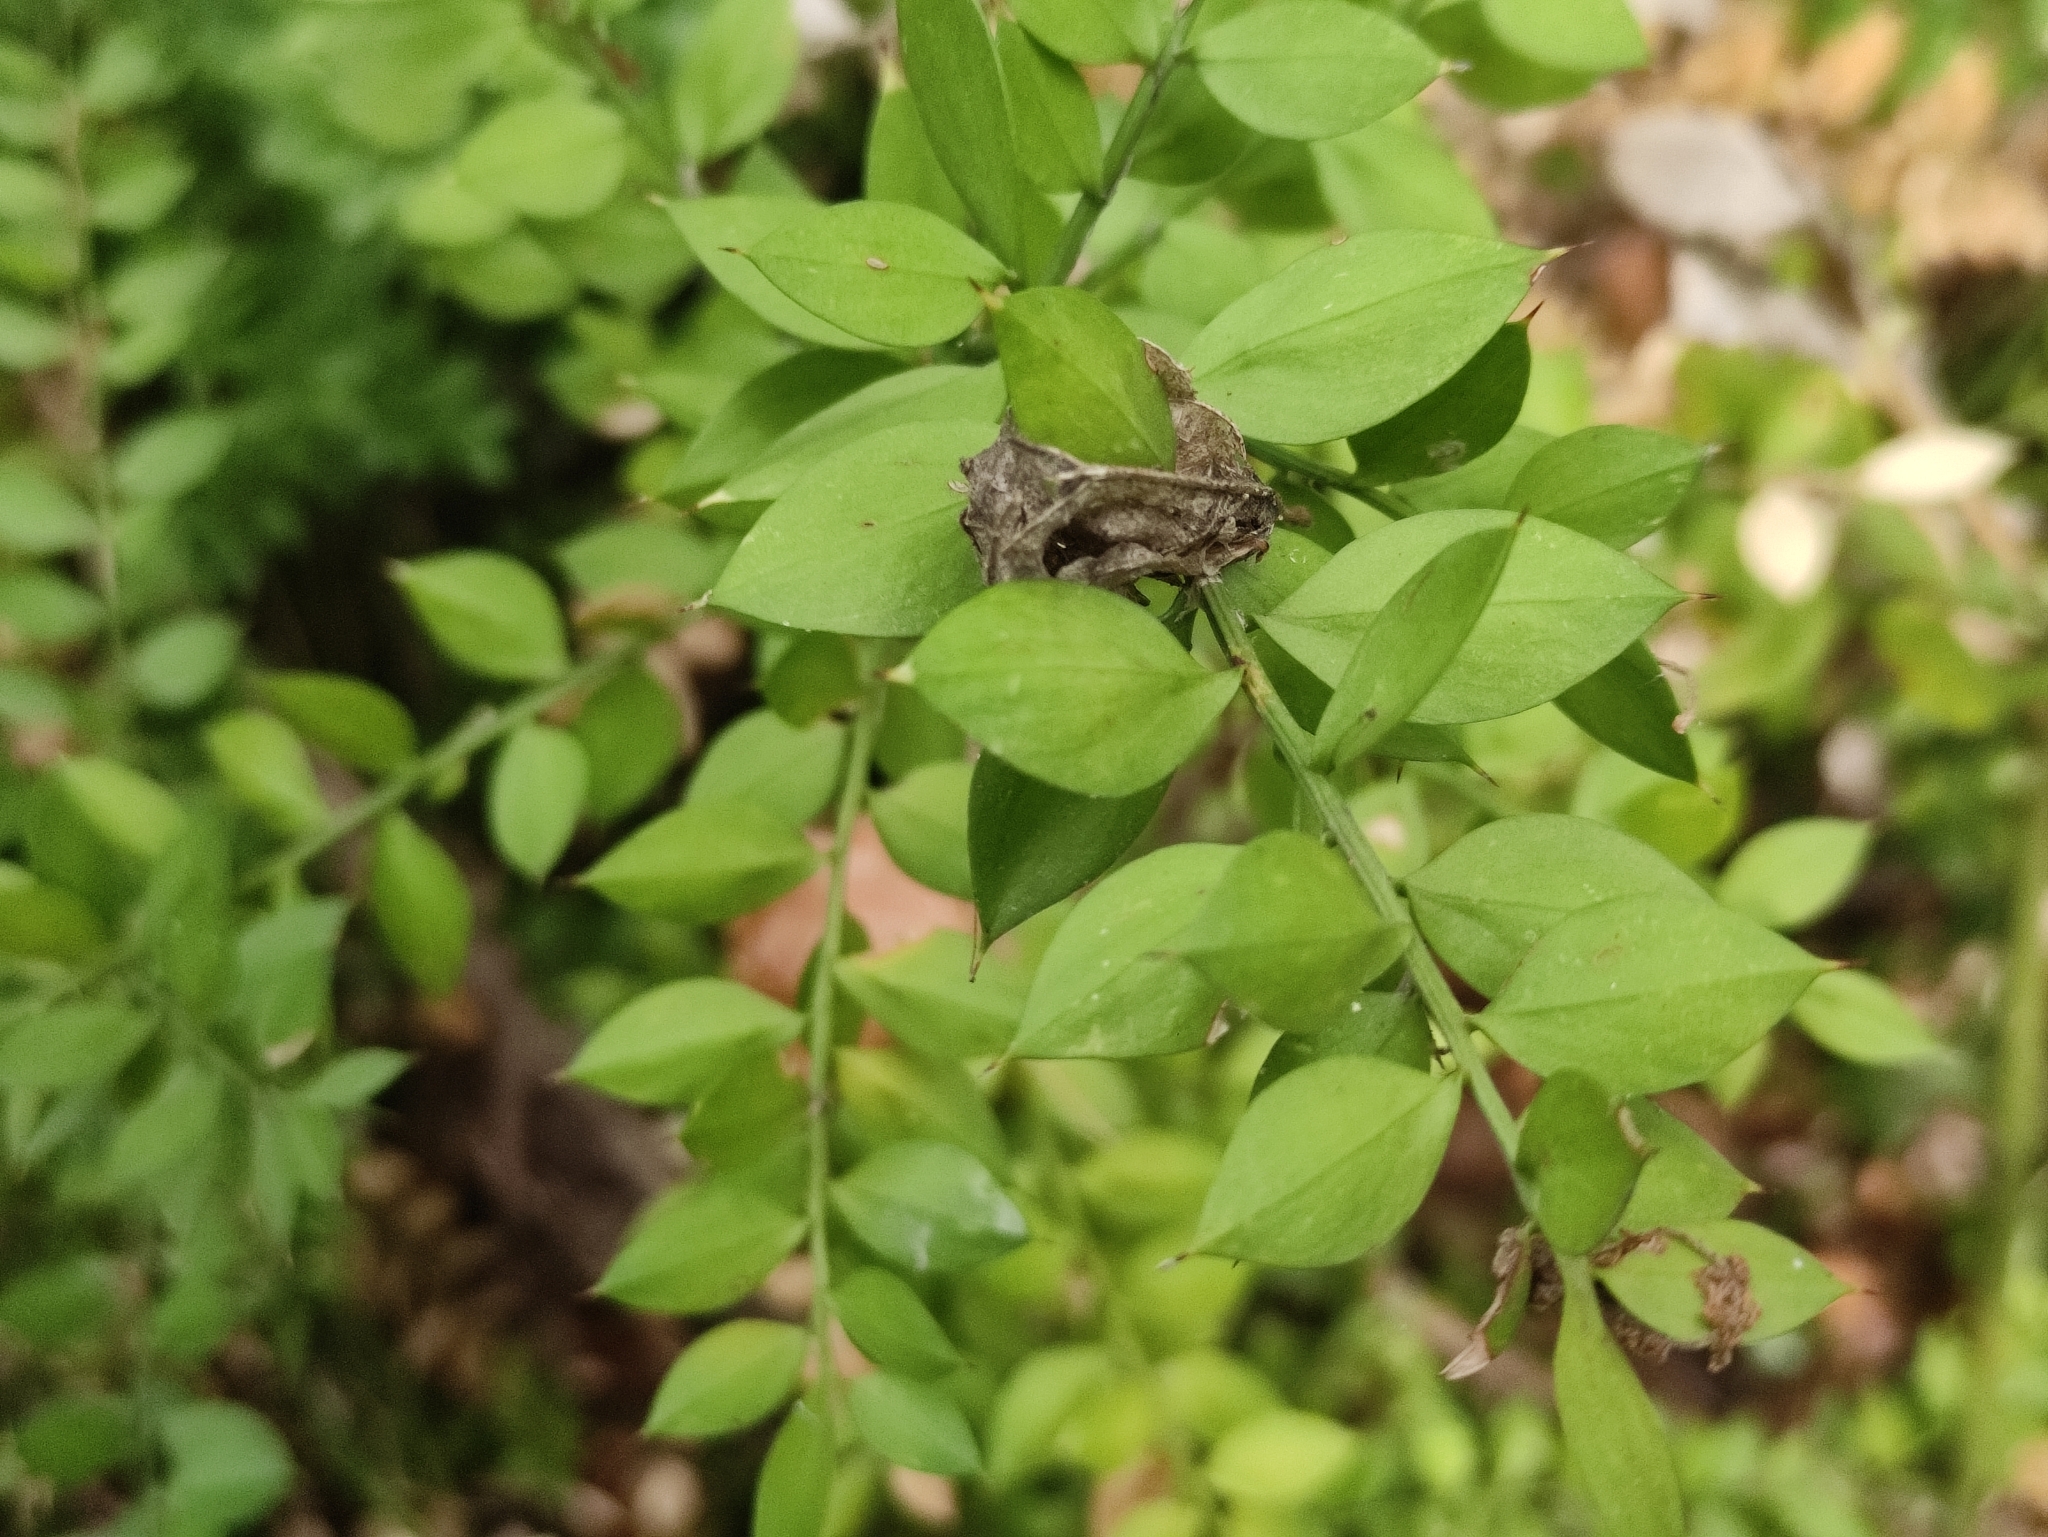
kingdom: Plantae
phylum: Tracheophyta
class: Liliopsida
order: Asparagales
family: Asparagaceae
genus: Ruscus
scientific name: Ruscus aculeatus
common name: Butcher's-broom
